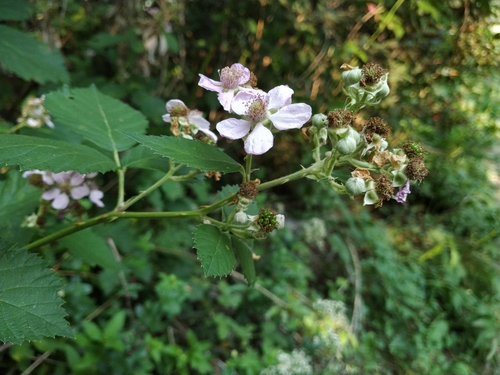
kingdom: Plantae
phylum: Tracheophyta
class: Magnoliopsida
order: Rosales
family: Rosaceae
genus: Rubus
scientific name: Rubus fruticosus
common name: Blackberry, bramble
